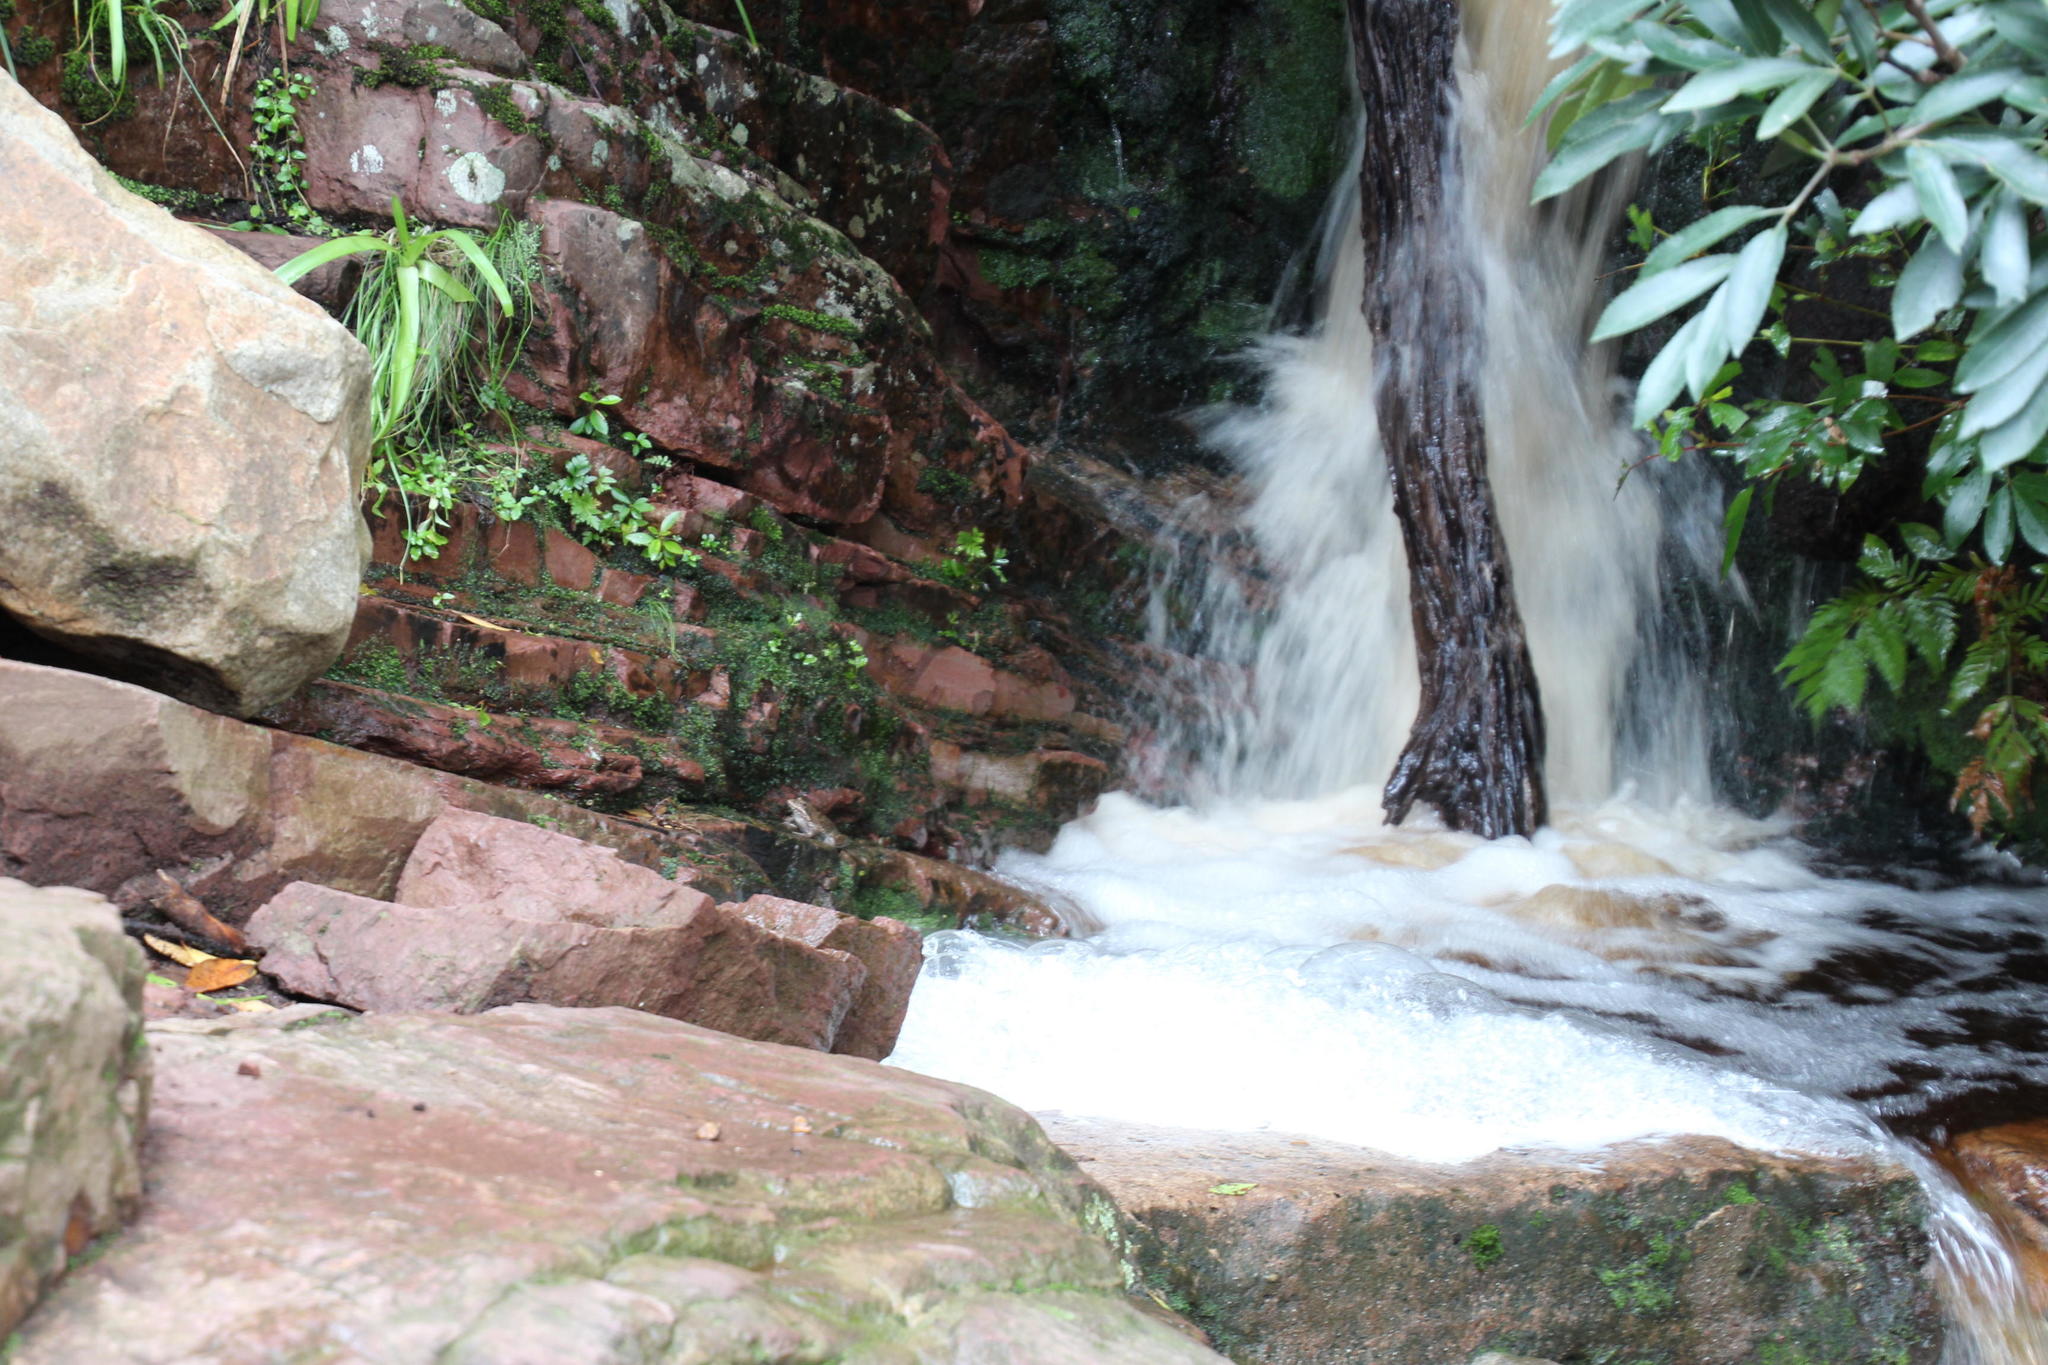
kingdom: Animalia
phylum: Chordata
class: Amphibia
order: Anura
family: Pyxicephalidae
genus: Amietia
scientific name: Amietia fuscigula
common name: Cape rana
